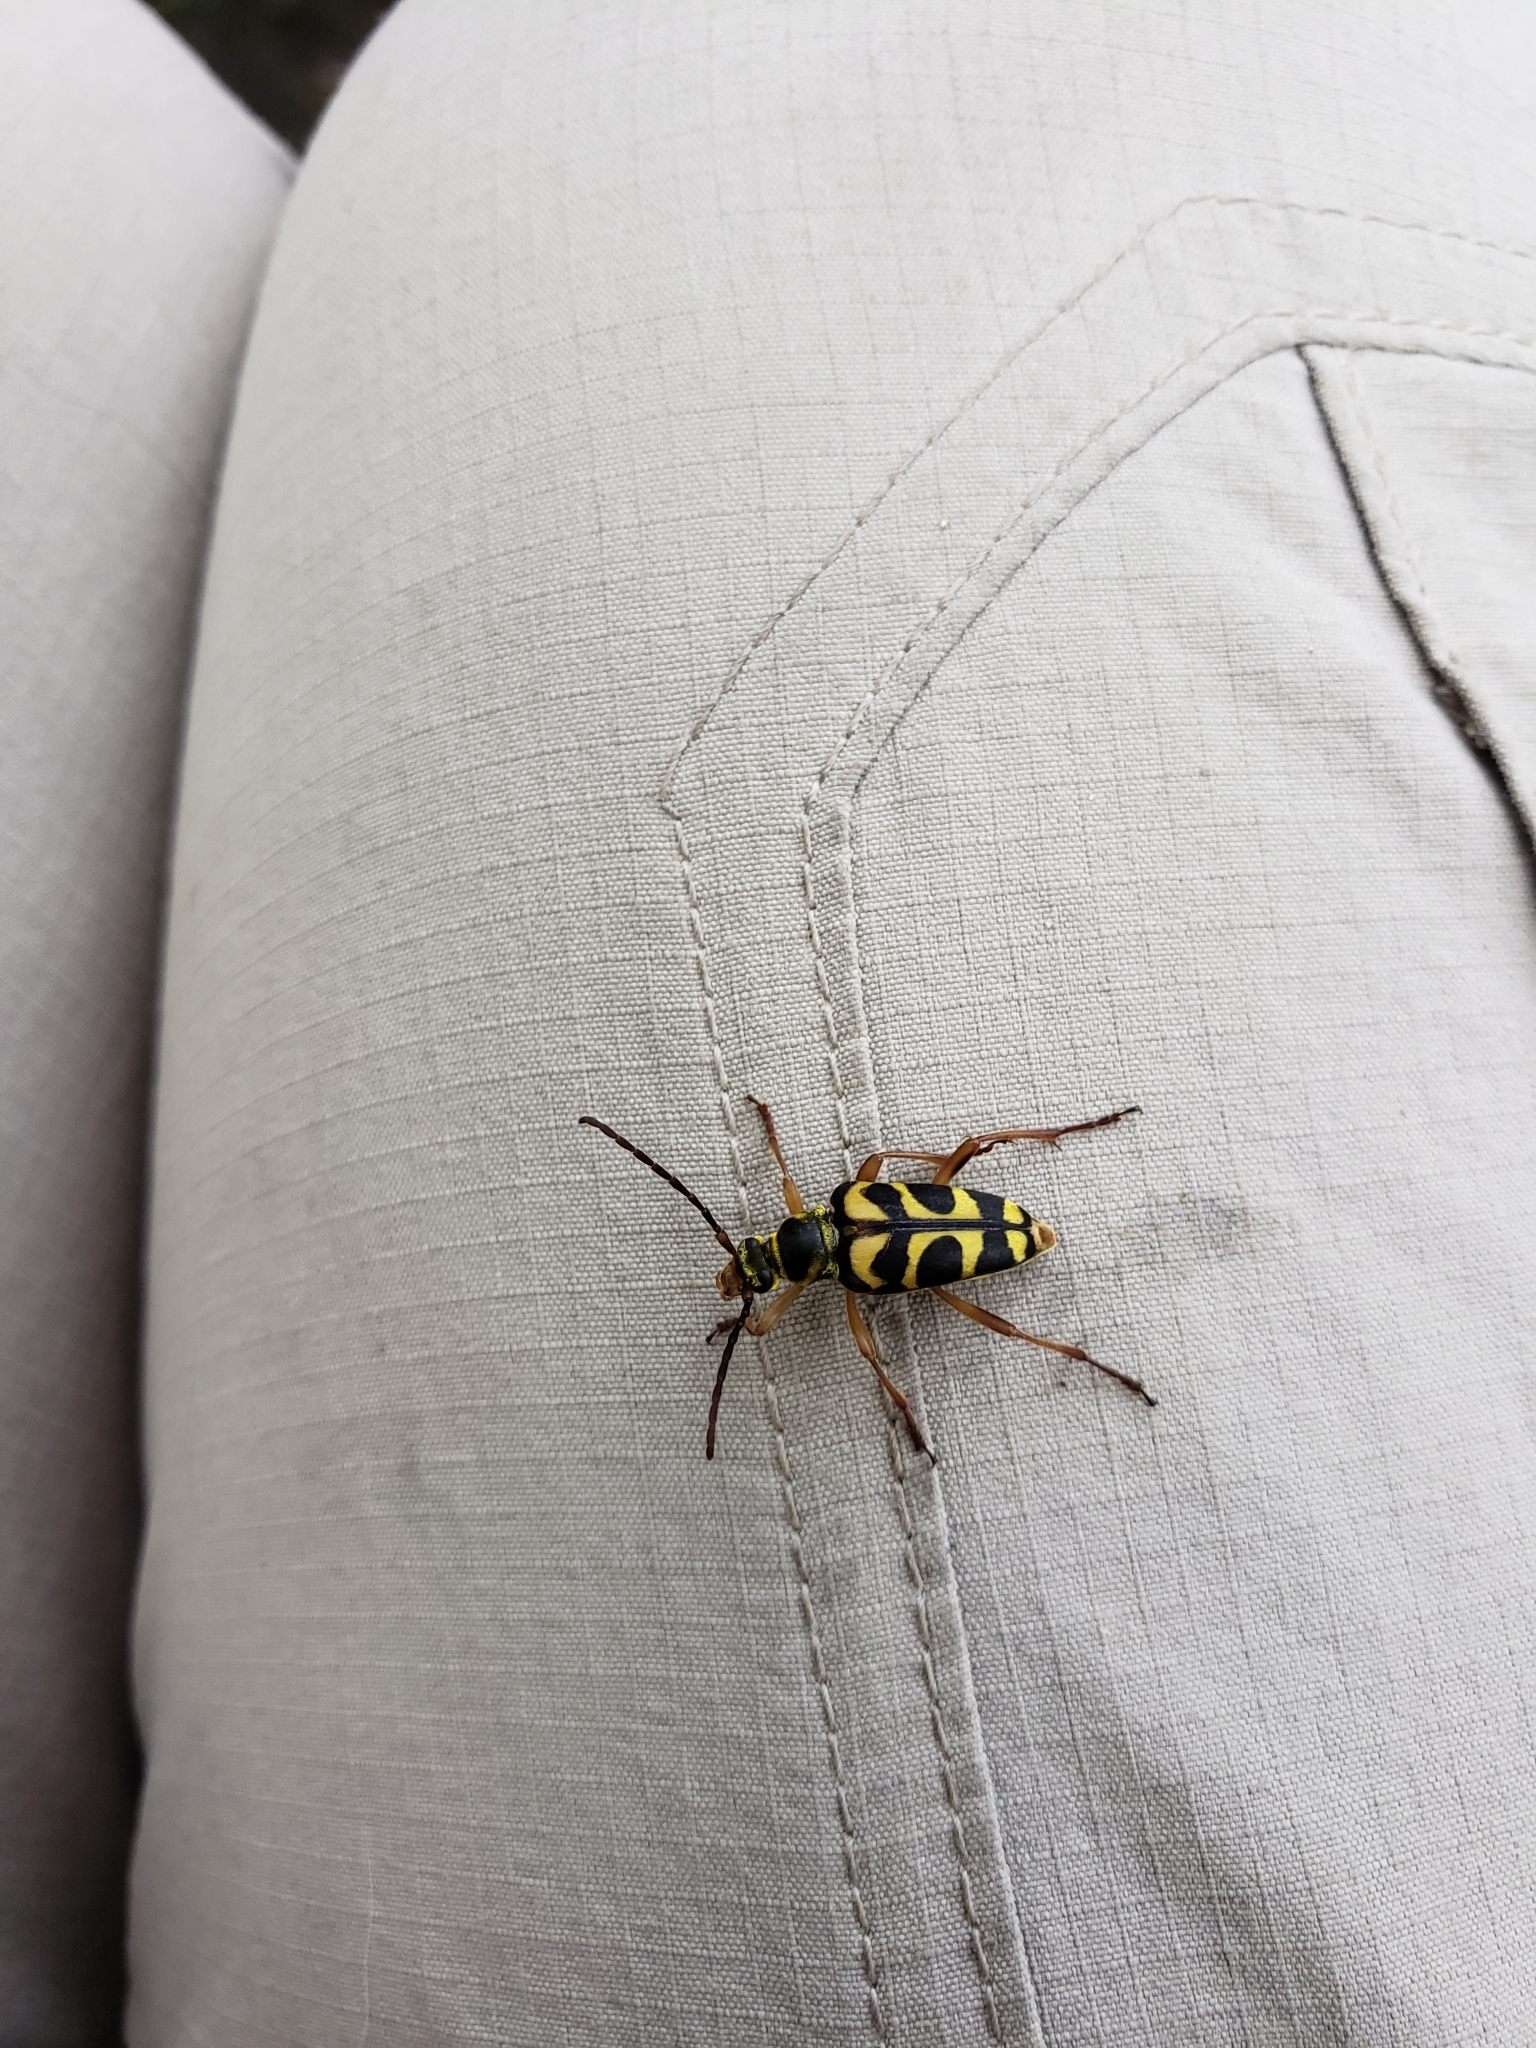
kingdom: Animalia
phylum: Arthropoda
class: Insecta
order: Coleoptera
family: Cerambycidae
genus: Strophiona
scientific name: Strophiona nitens
